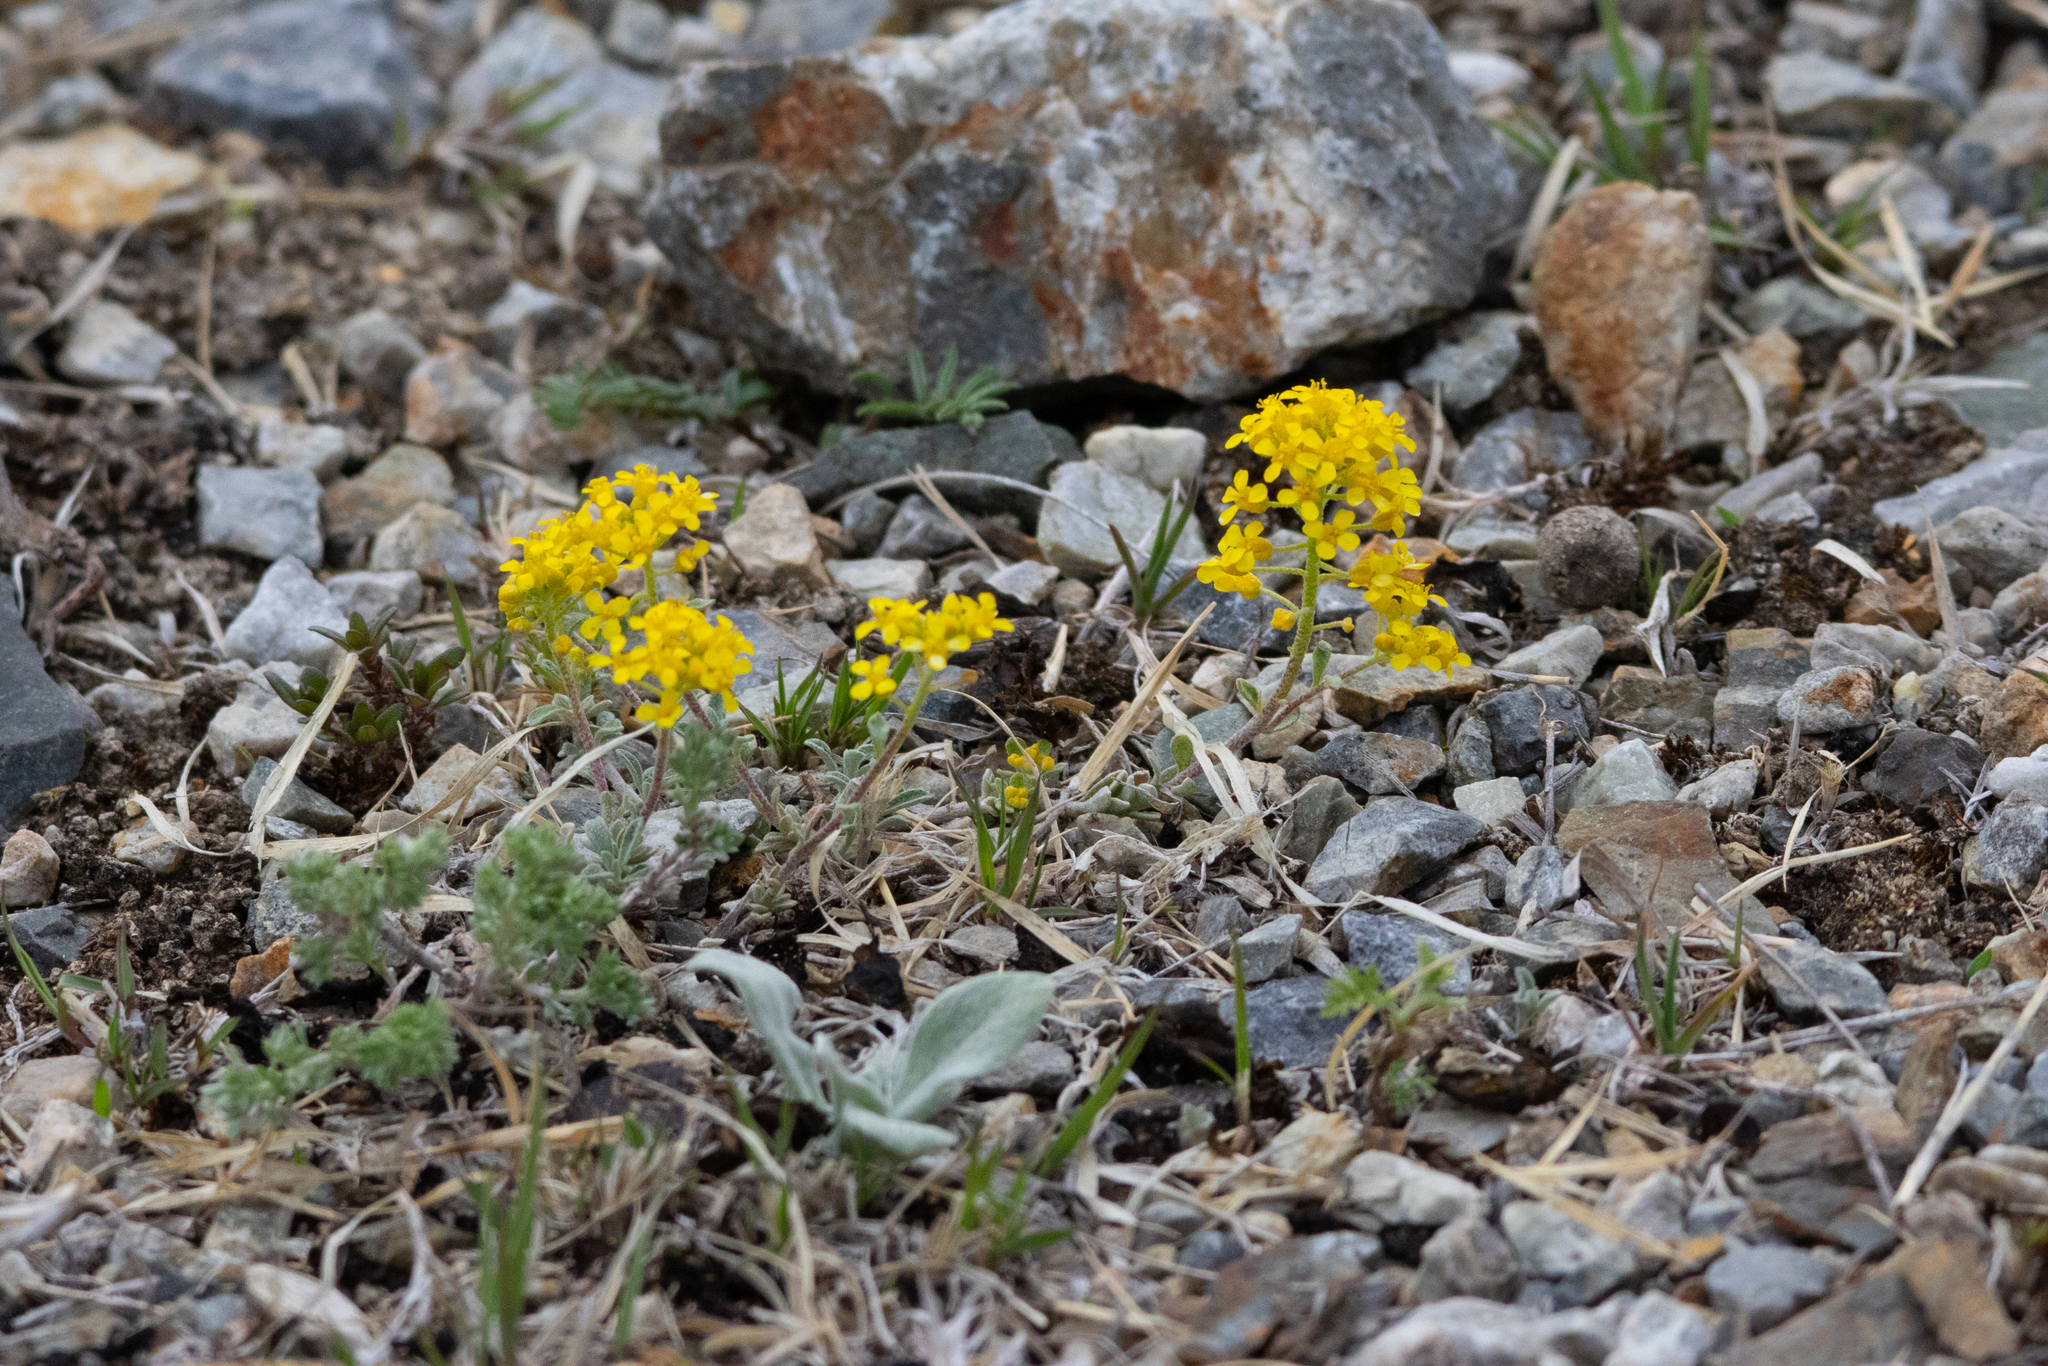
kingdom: Plantae
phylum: Tracheophyta
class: Magnoliopsida
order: Brassicales
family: Brassicaceae
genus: Odontarrhena
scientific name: Odontarrhena obovata
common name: American alyssum
